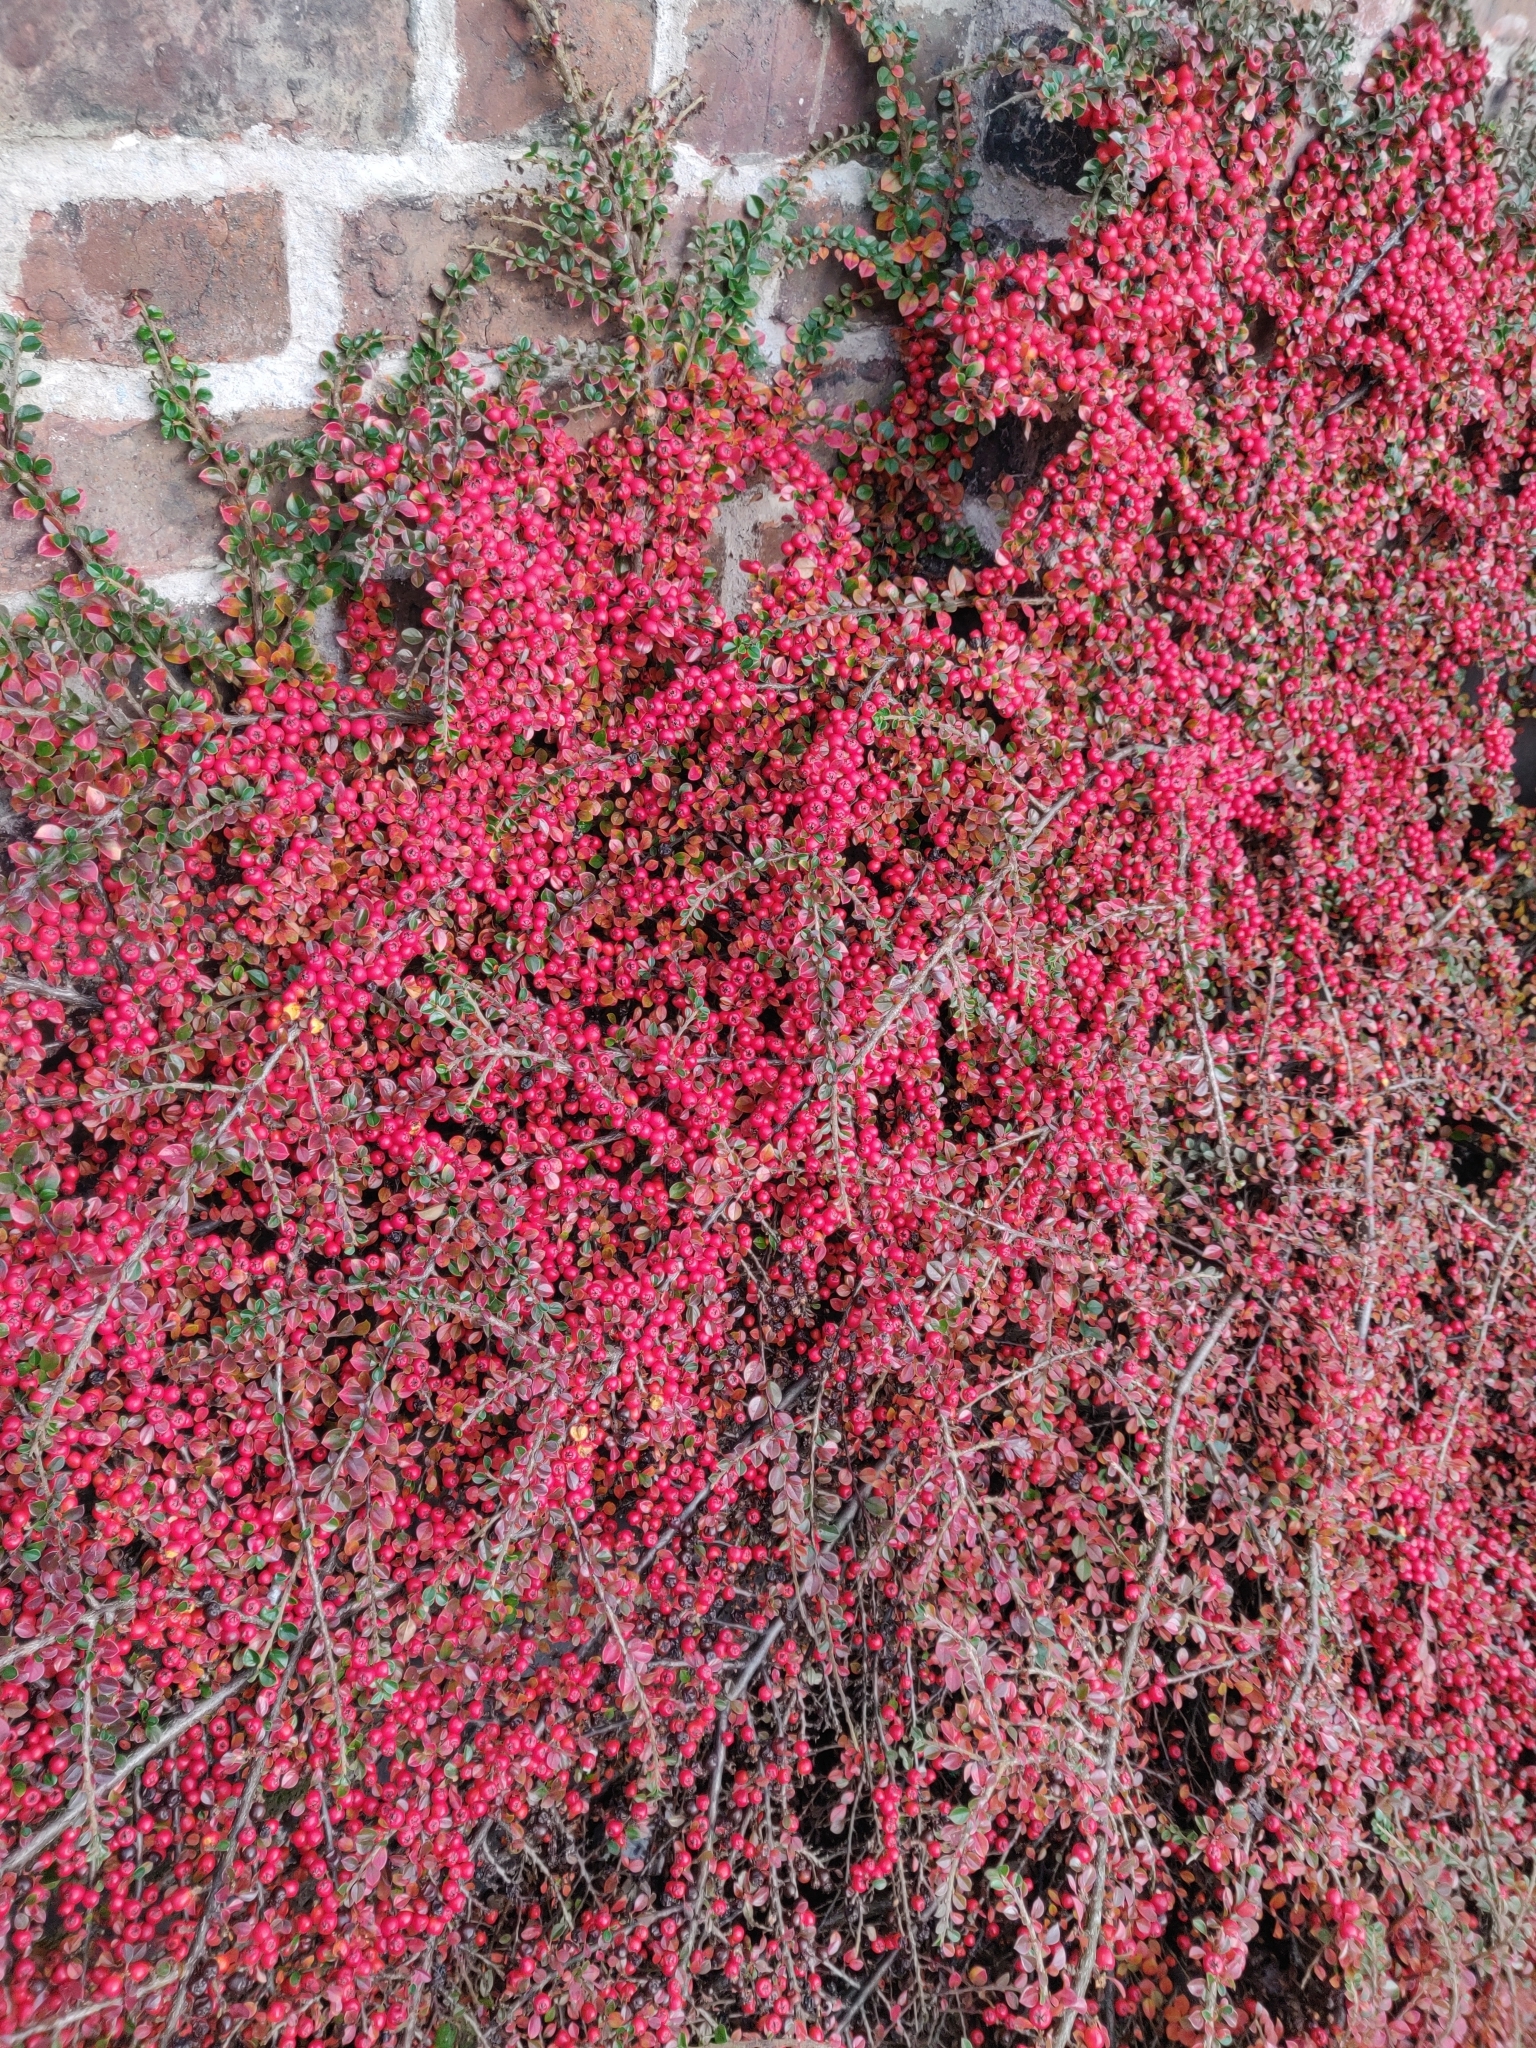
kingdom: Plantae
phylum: Tracheophyta
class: Magnoliopsida
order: Rosales
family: Rosaceae
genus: Cotoneaster
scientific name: Cotoneaster horizontalis
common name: Wall cotoneaster
